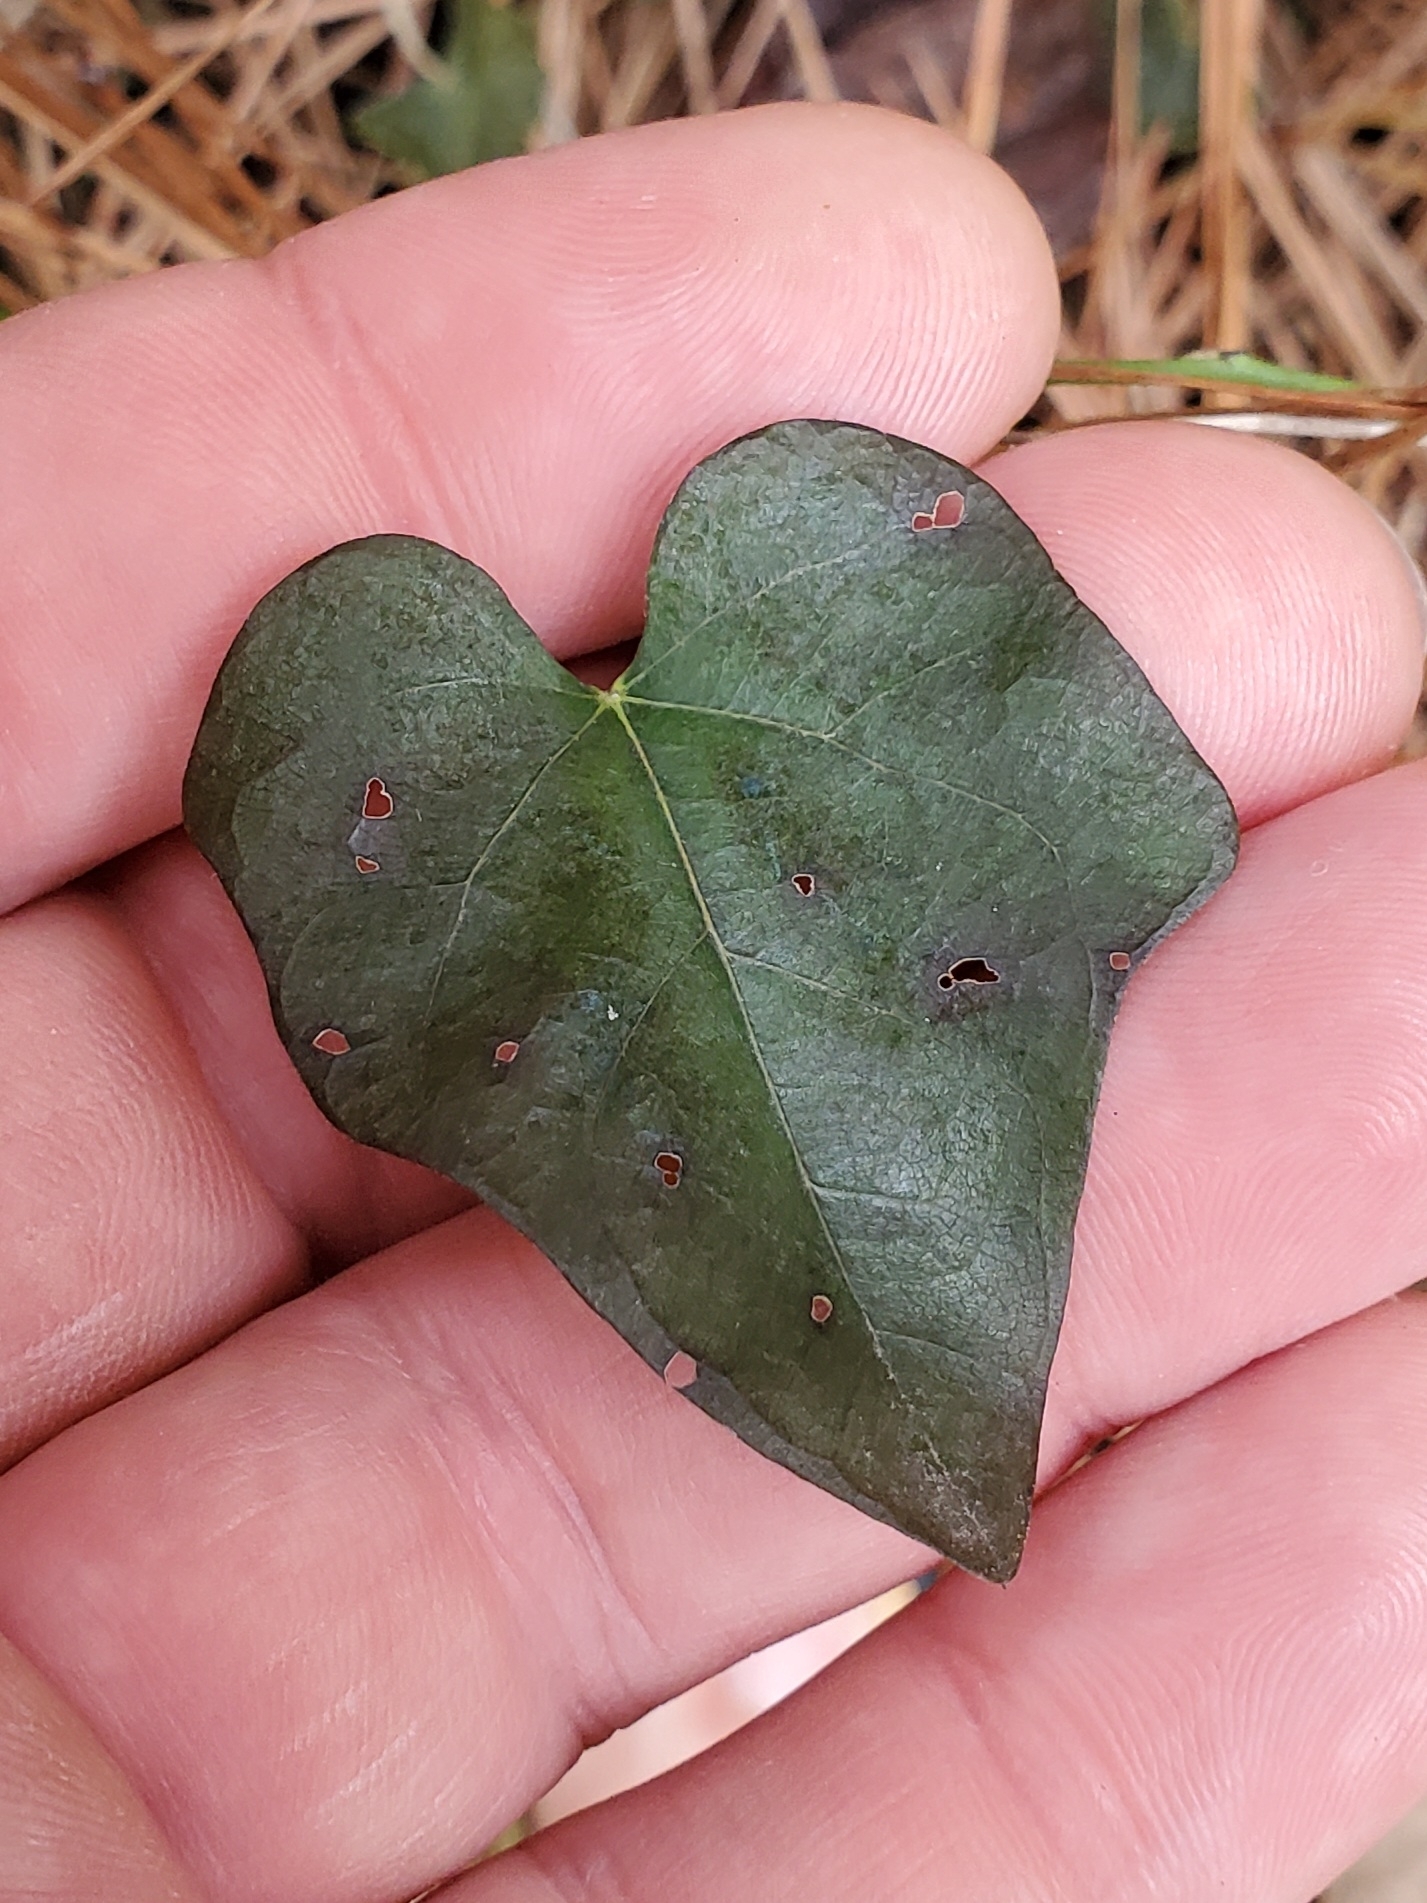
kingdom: Plantae
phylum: Tracheophyta
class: Magnoliopsida
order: Ranunculales
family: Menispermaceae
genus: Cocculus
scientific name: Cocculus carolinus
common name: Carolina moonseed
